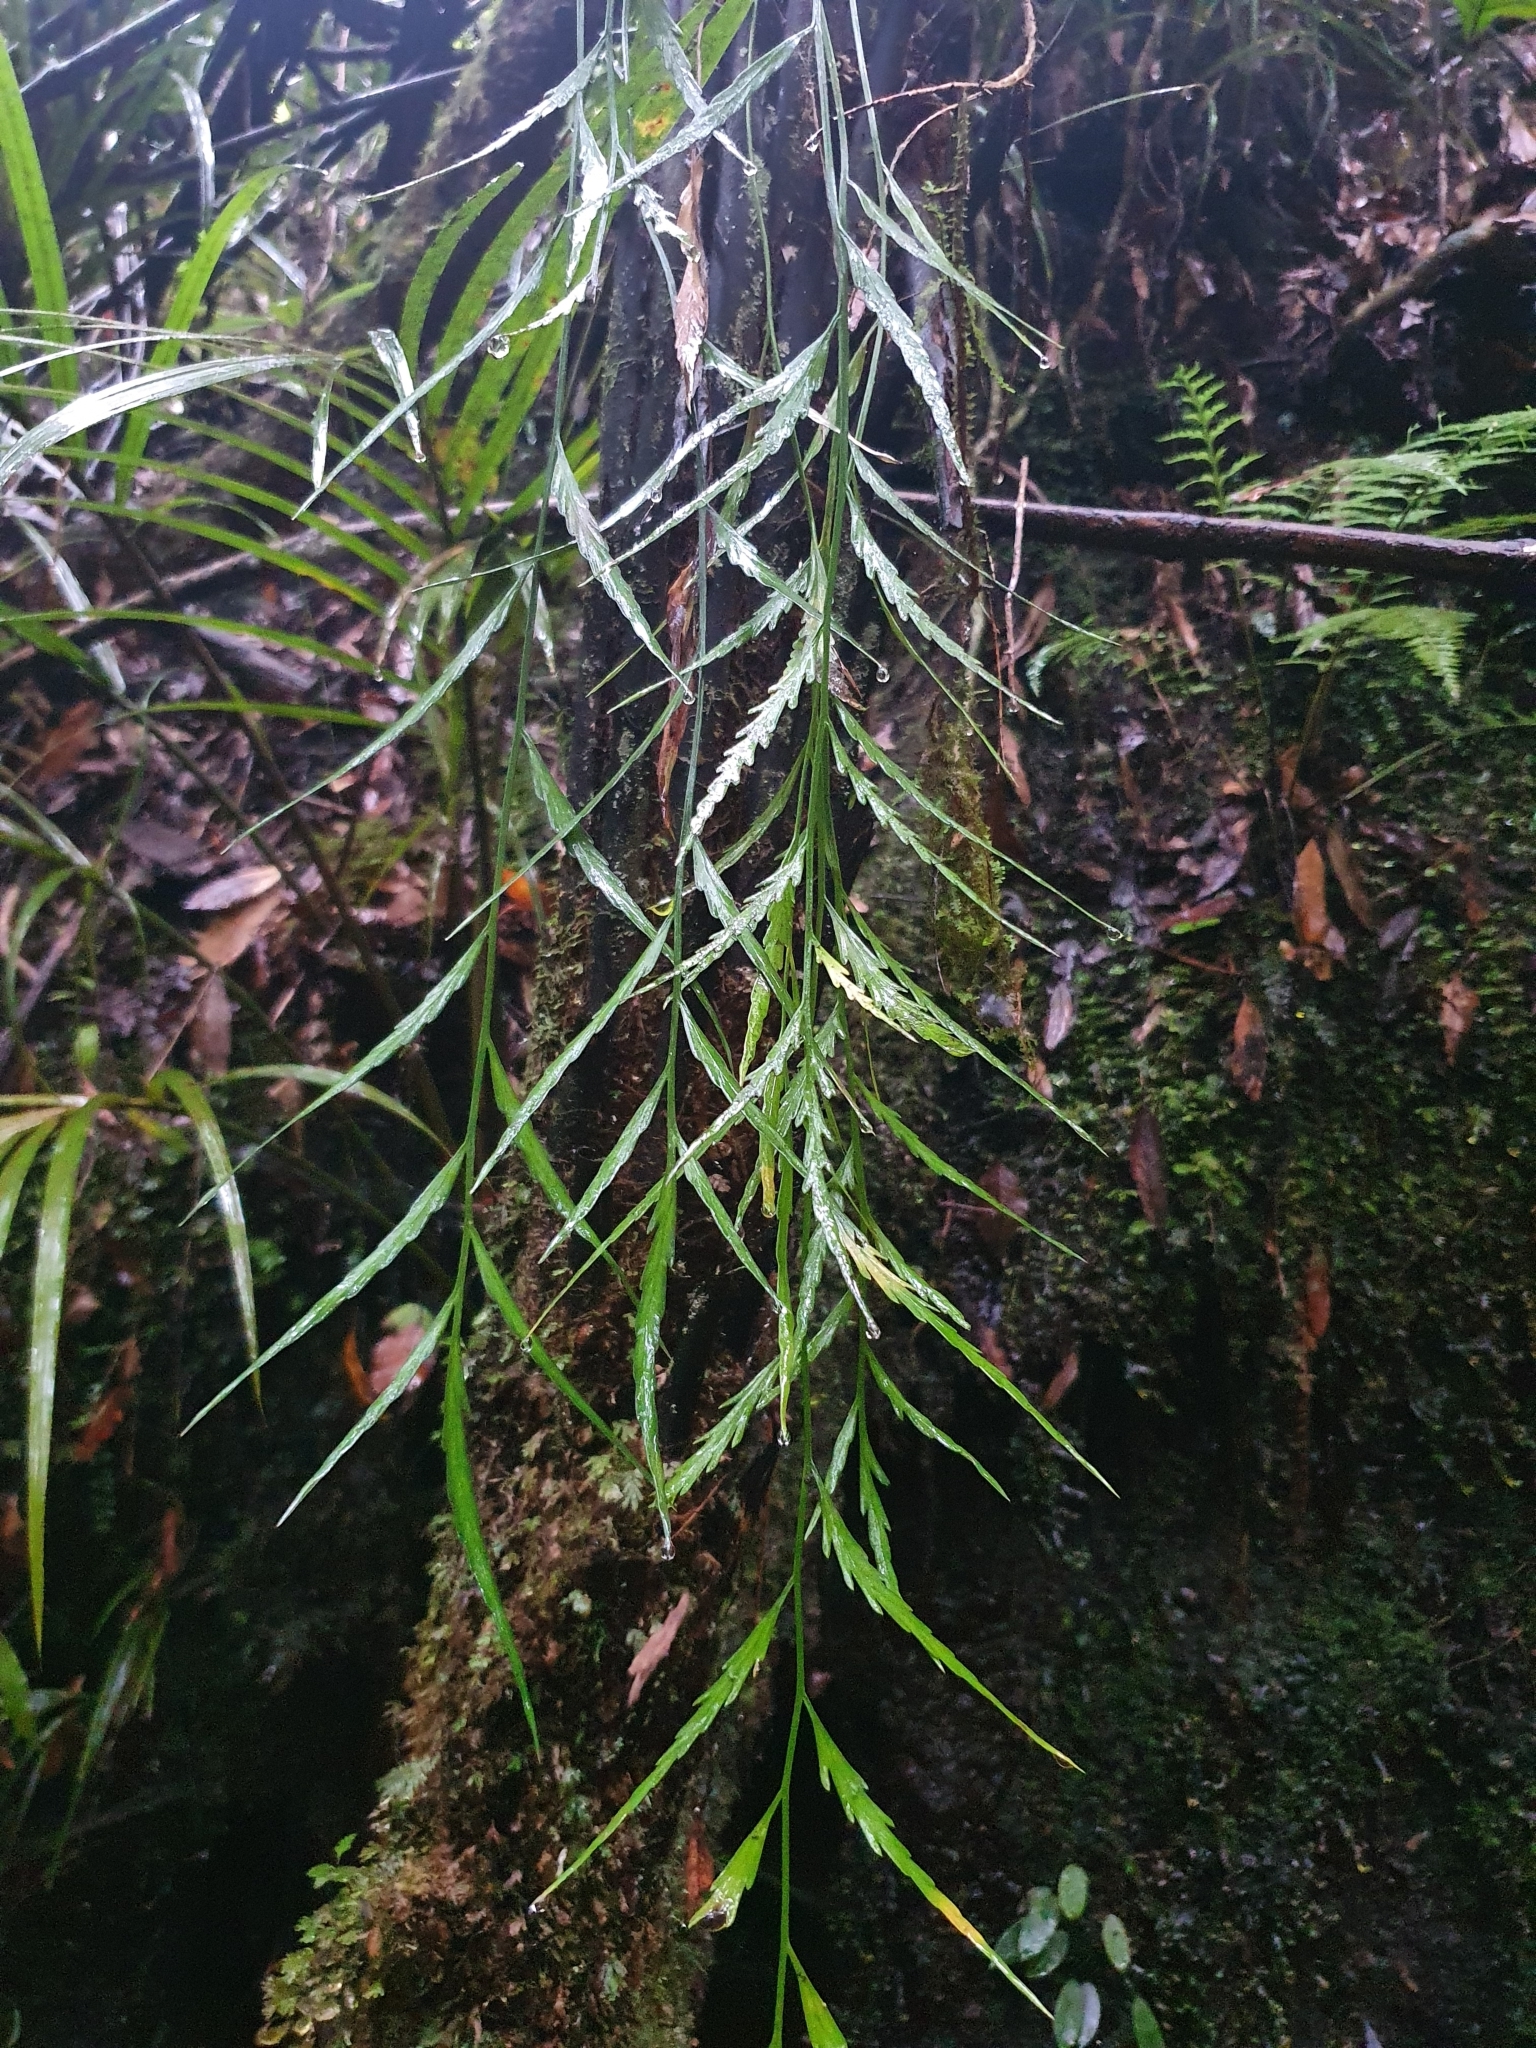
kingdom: Plantae
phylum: Tracheophyta
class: Polypodiopsida
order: Polypodiales
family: Aspleniaceae
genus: Asplenium
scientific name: Asplenium flaccidum
